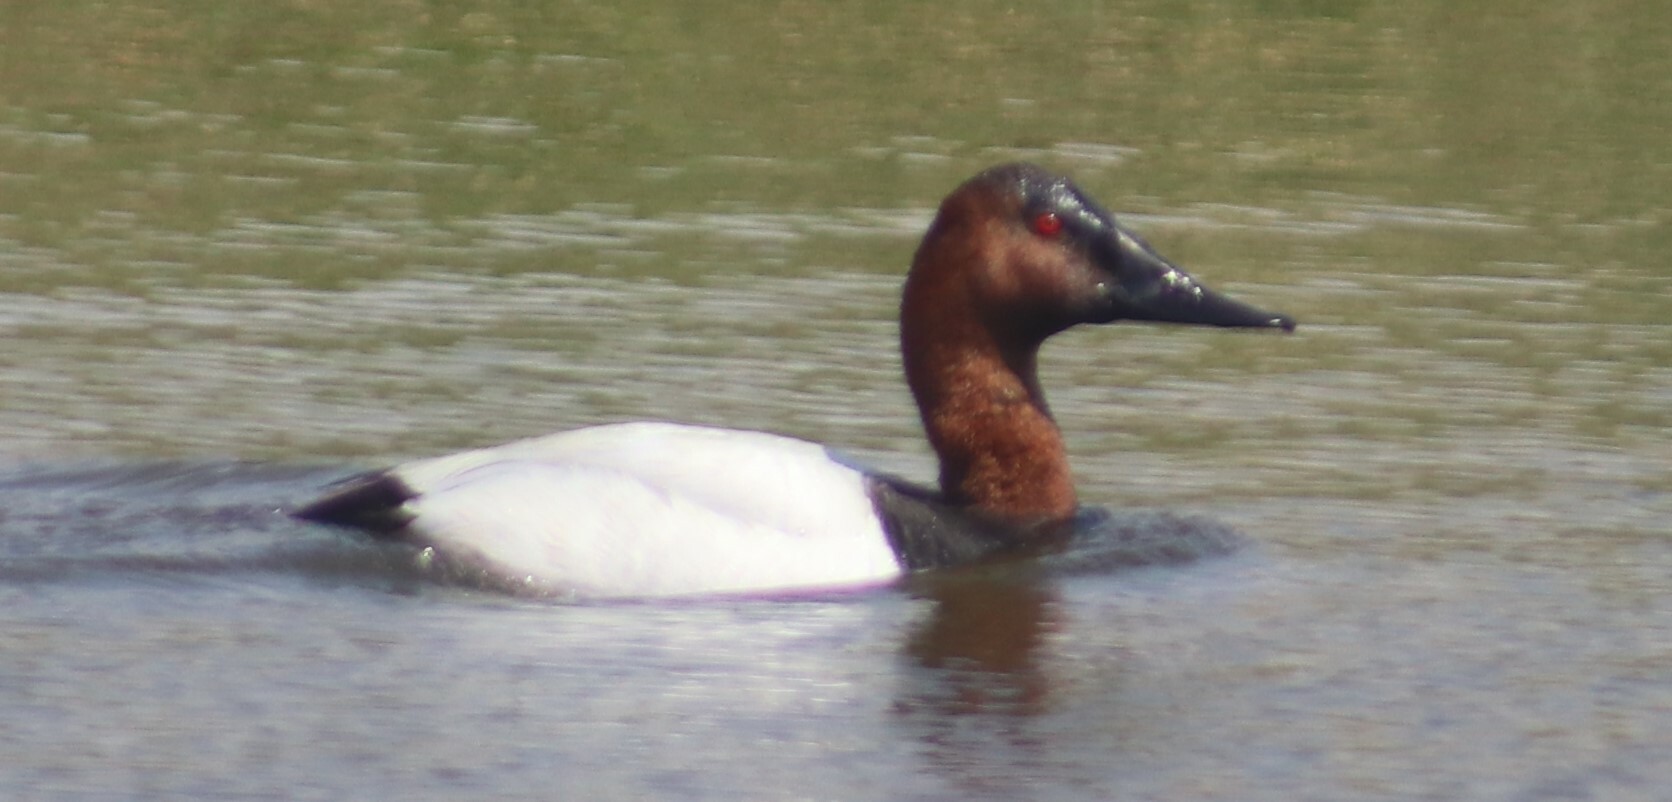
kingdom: Animalia
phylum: Chordata
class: Aves
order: Anseriformes
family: Anatidae
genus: Aythya
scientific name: Aythya valisineria
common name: Canvasback
